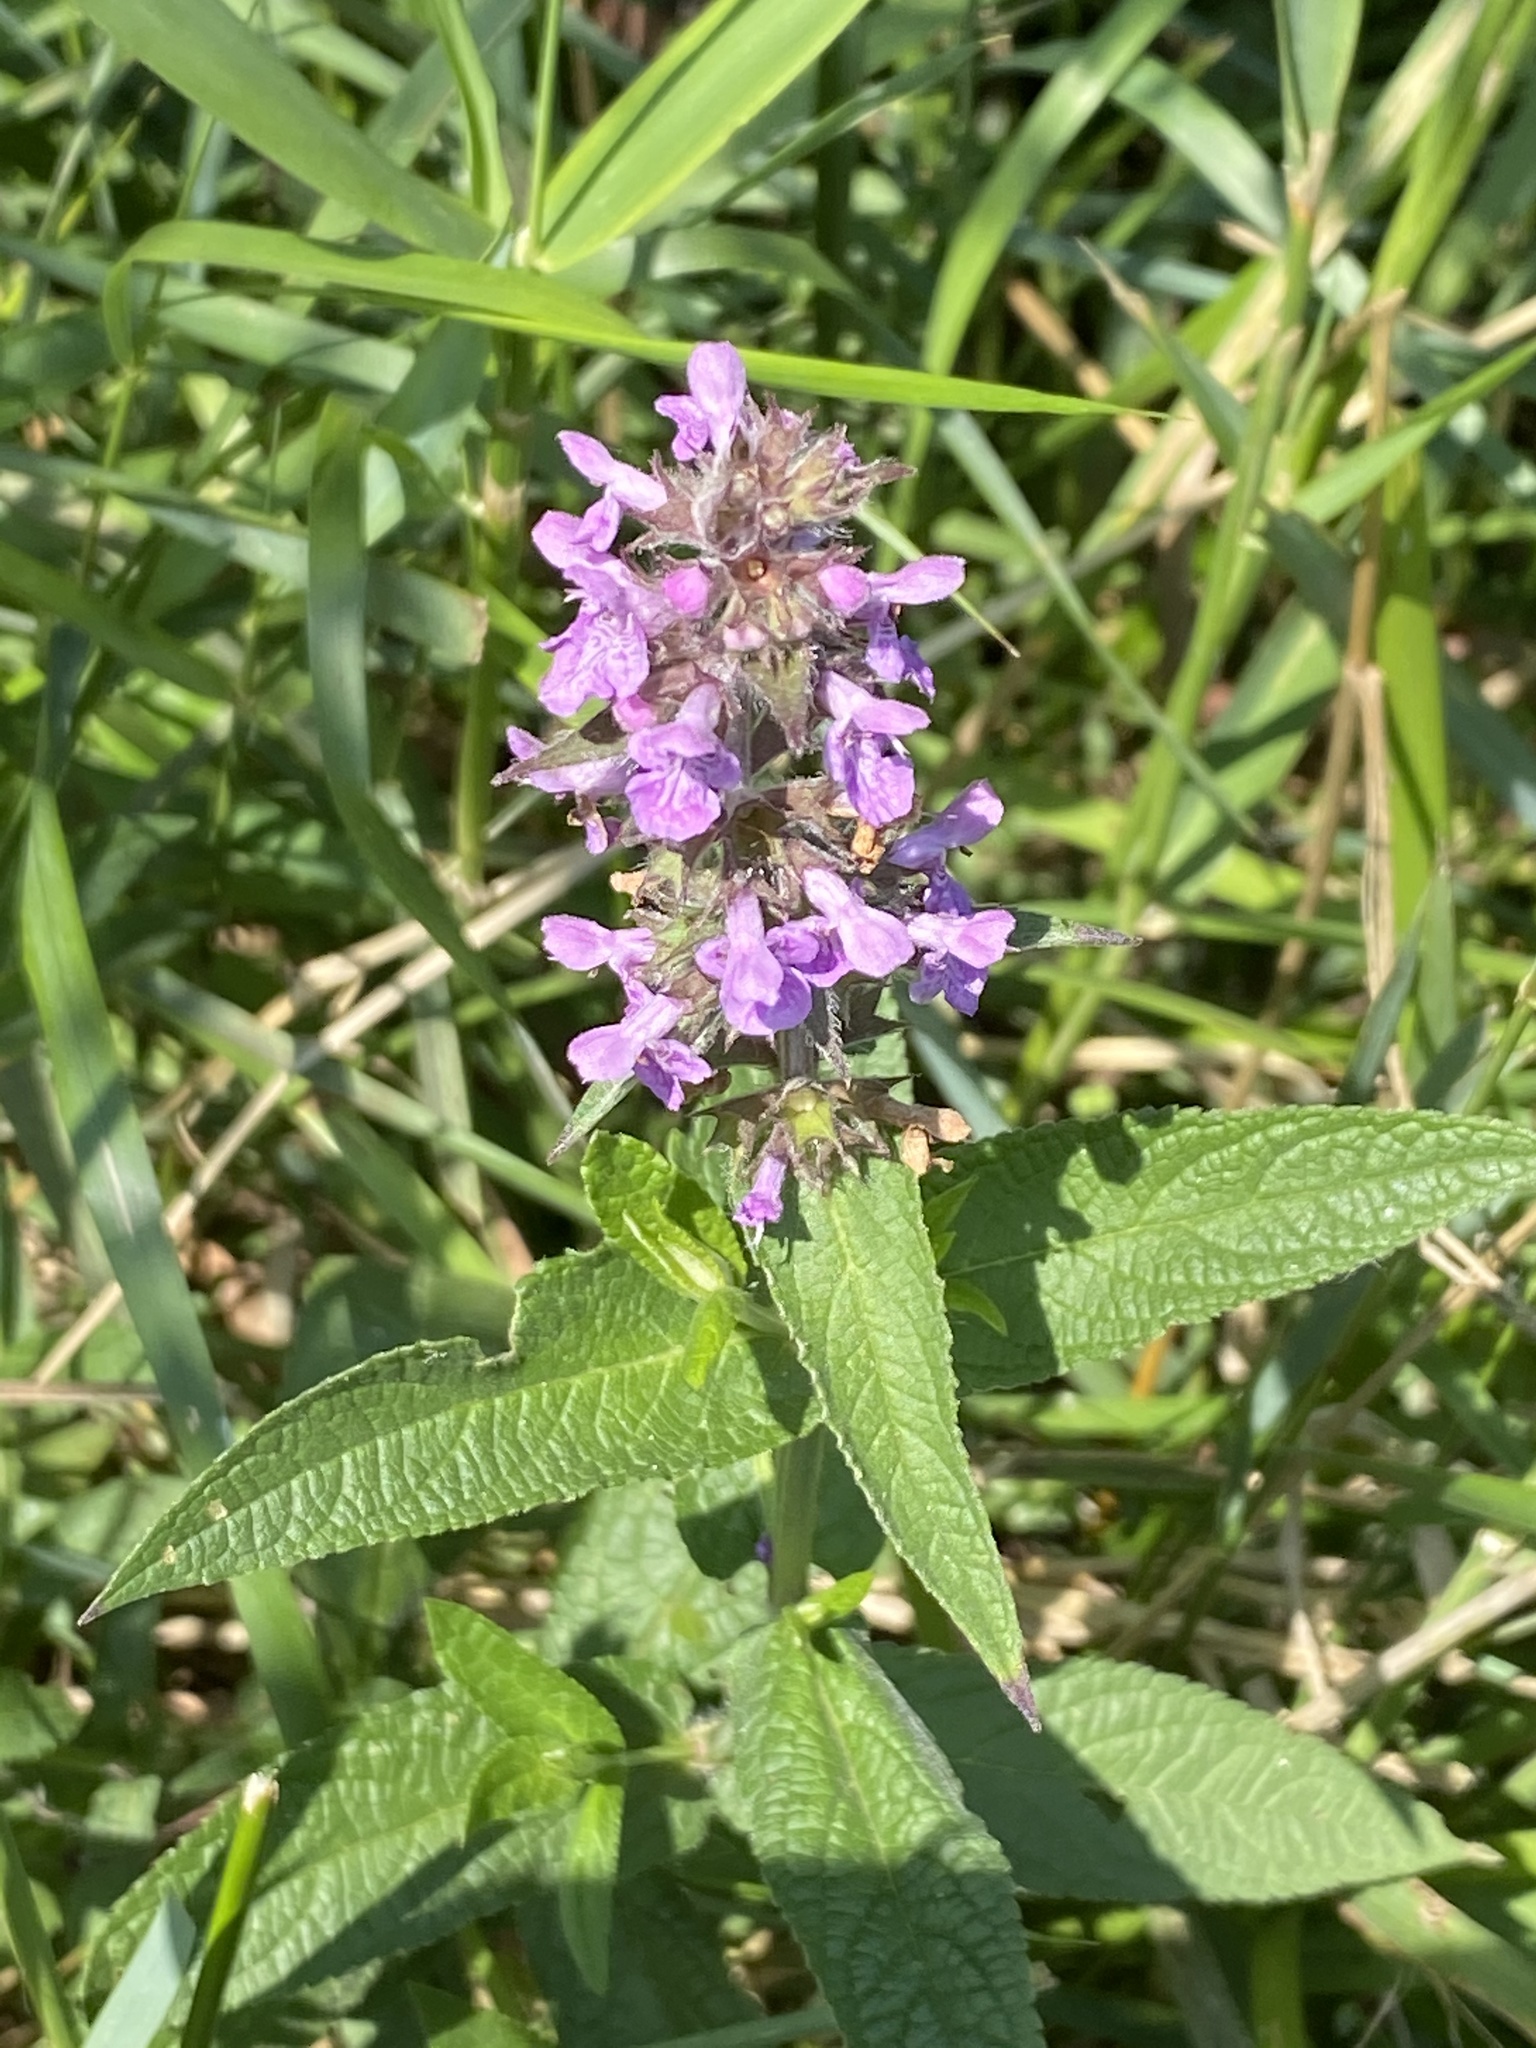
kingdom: Plantae
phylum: Tracheophyta
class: Magnoliopsida
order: Lamiales
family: Lamiaceae
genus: Stachys
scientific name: Stachys palustris
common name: Marsh woundwort
